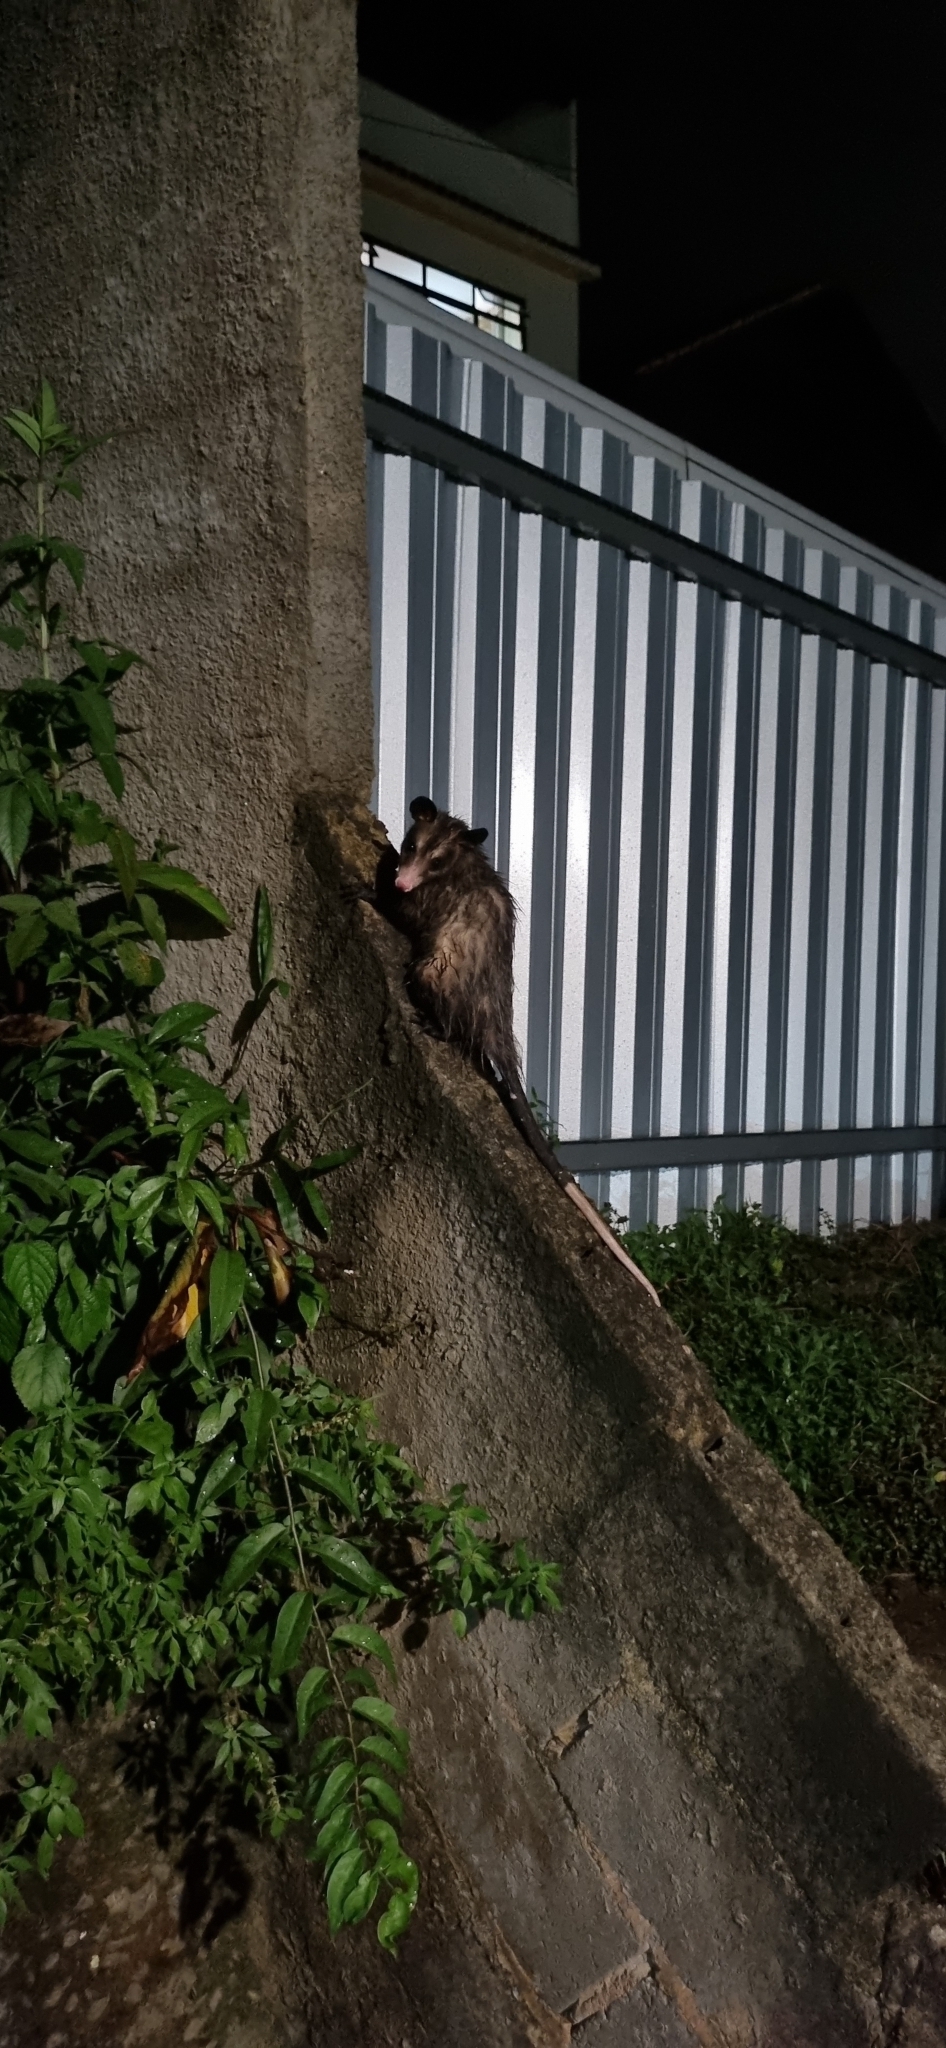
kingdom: Animalia
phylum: Chordata
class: Mammalia
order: Didelphimorphia
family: Didelphidae
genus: Didelphis
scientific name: Didelphis aurita
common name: Big-eared opossum
